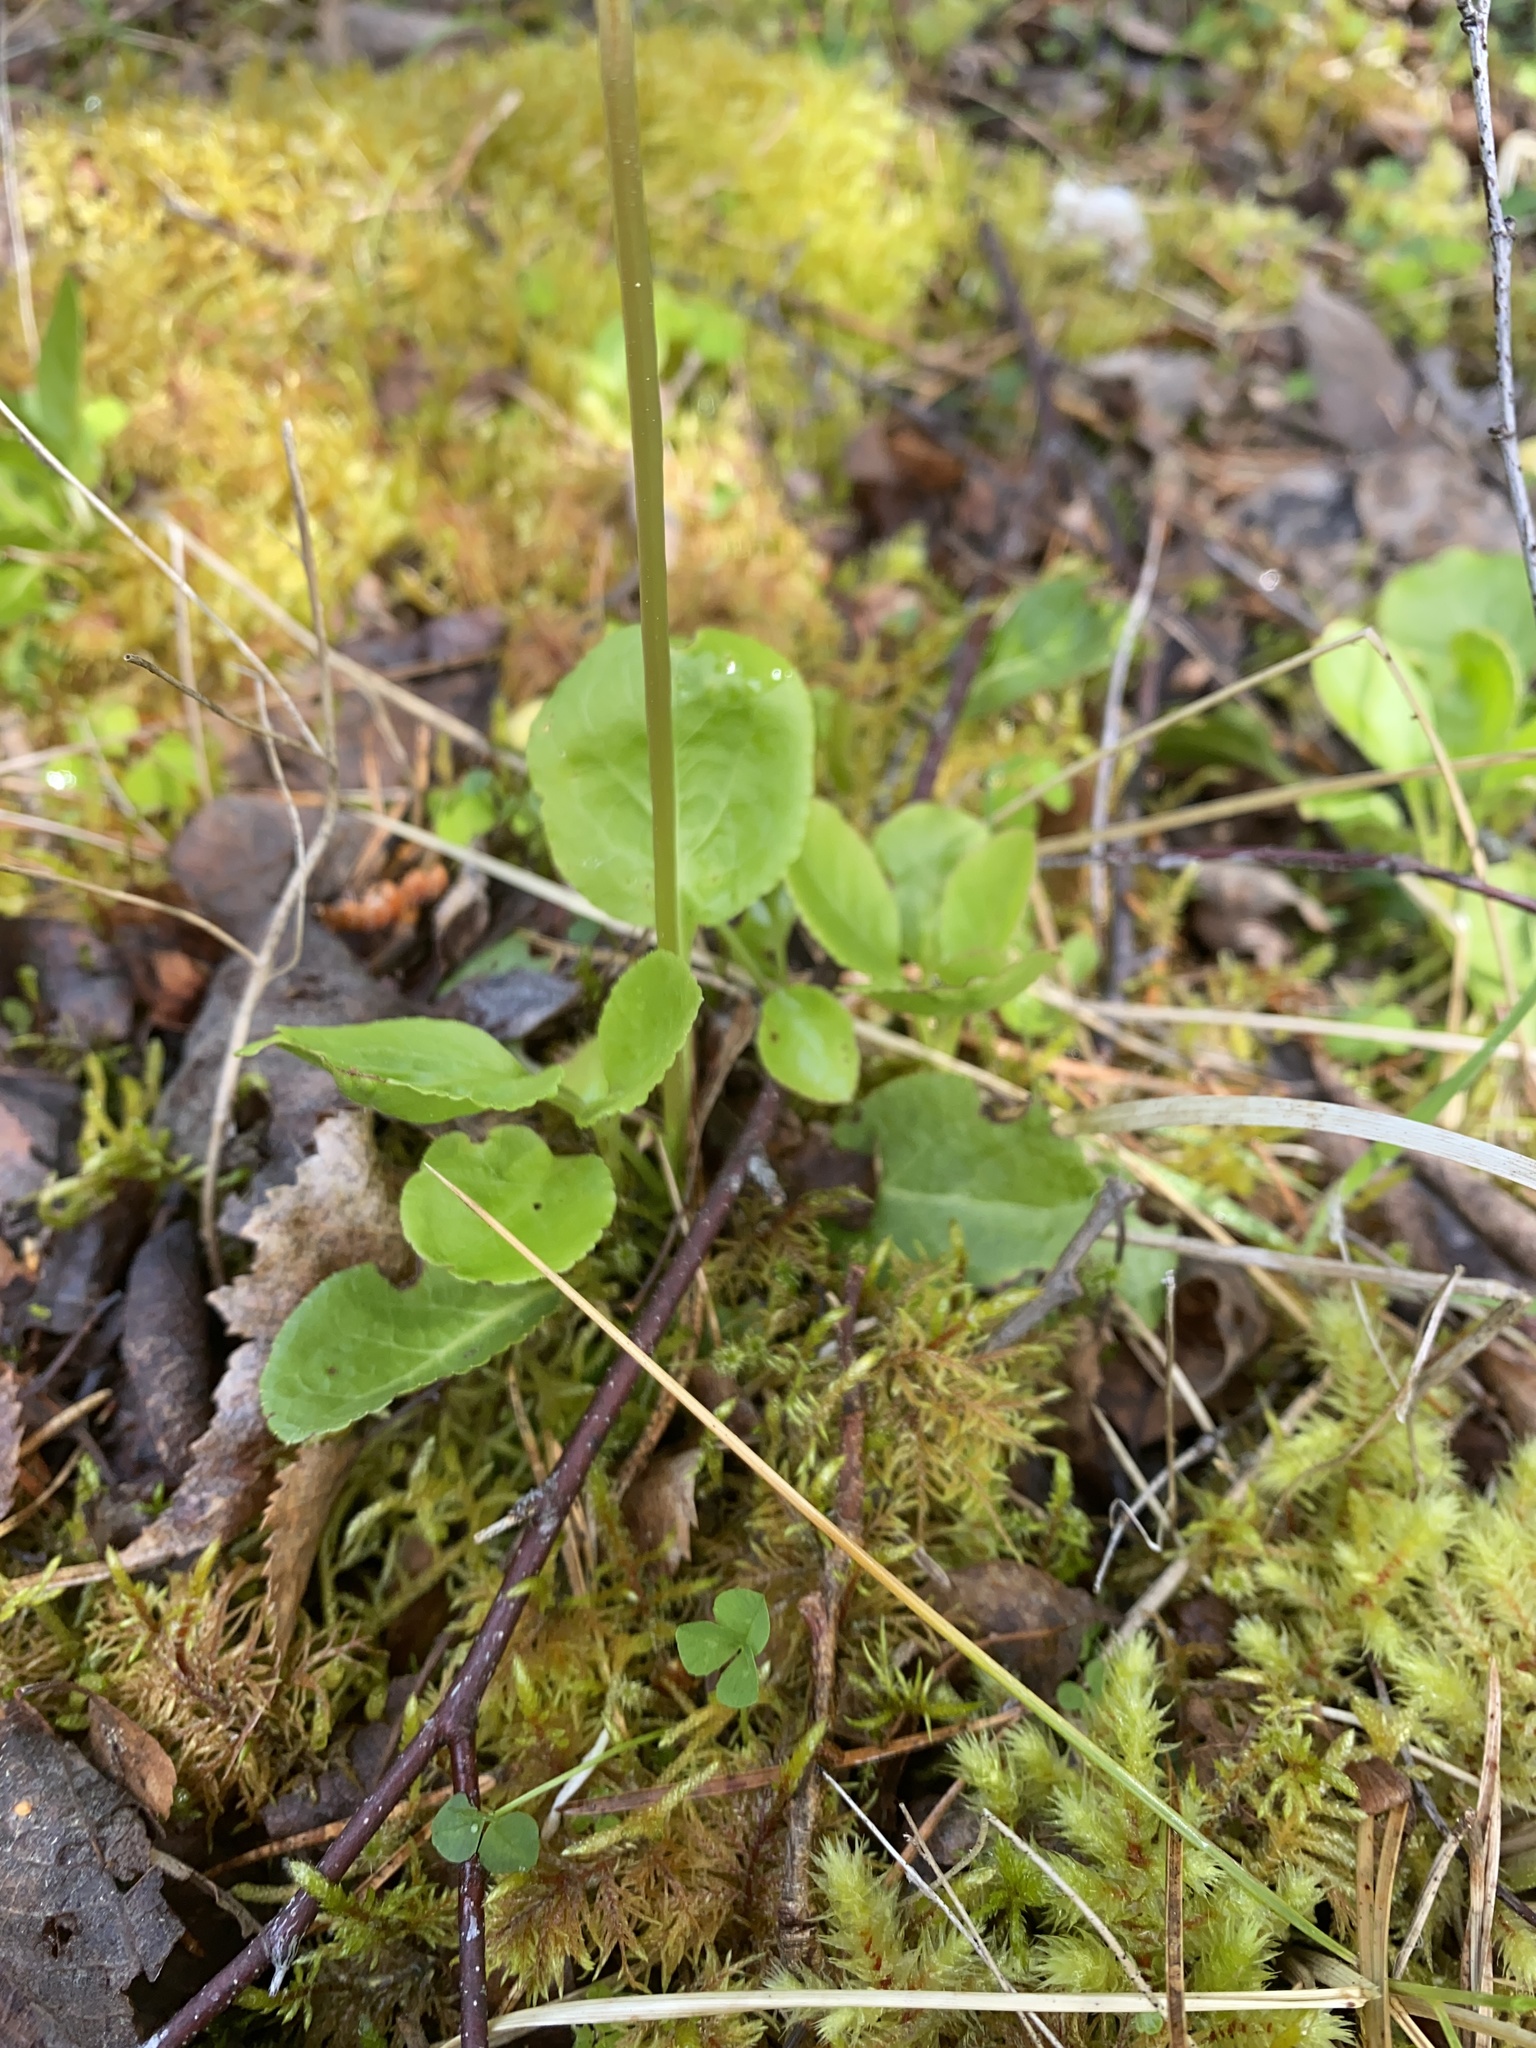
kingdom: Plantae
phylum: Tracheophyta
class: Magnoliopsida
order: Ericales
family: Ericaceae
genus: Pyrola
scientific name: Pyrola minor
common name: Common wintergreen
